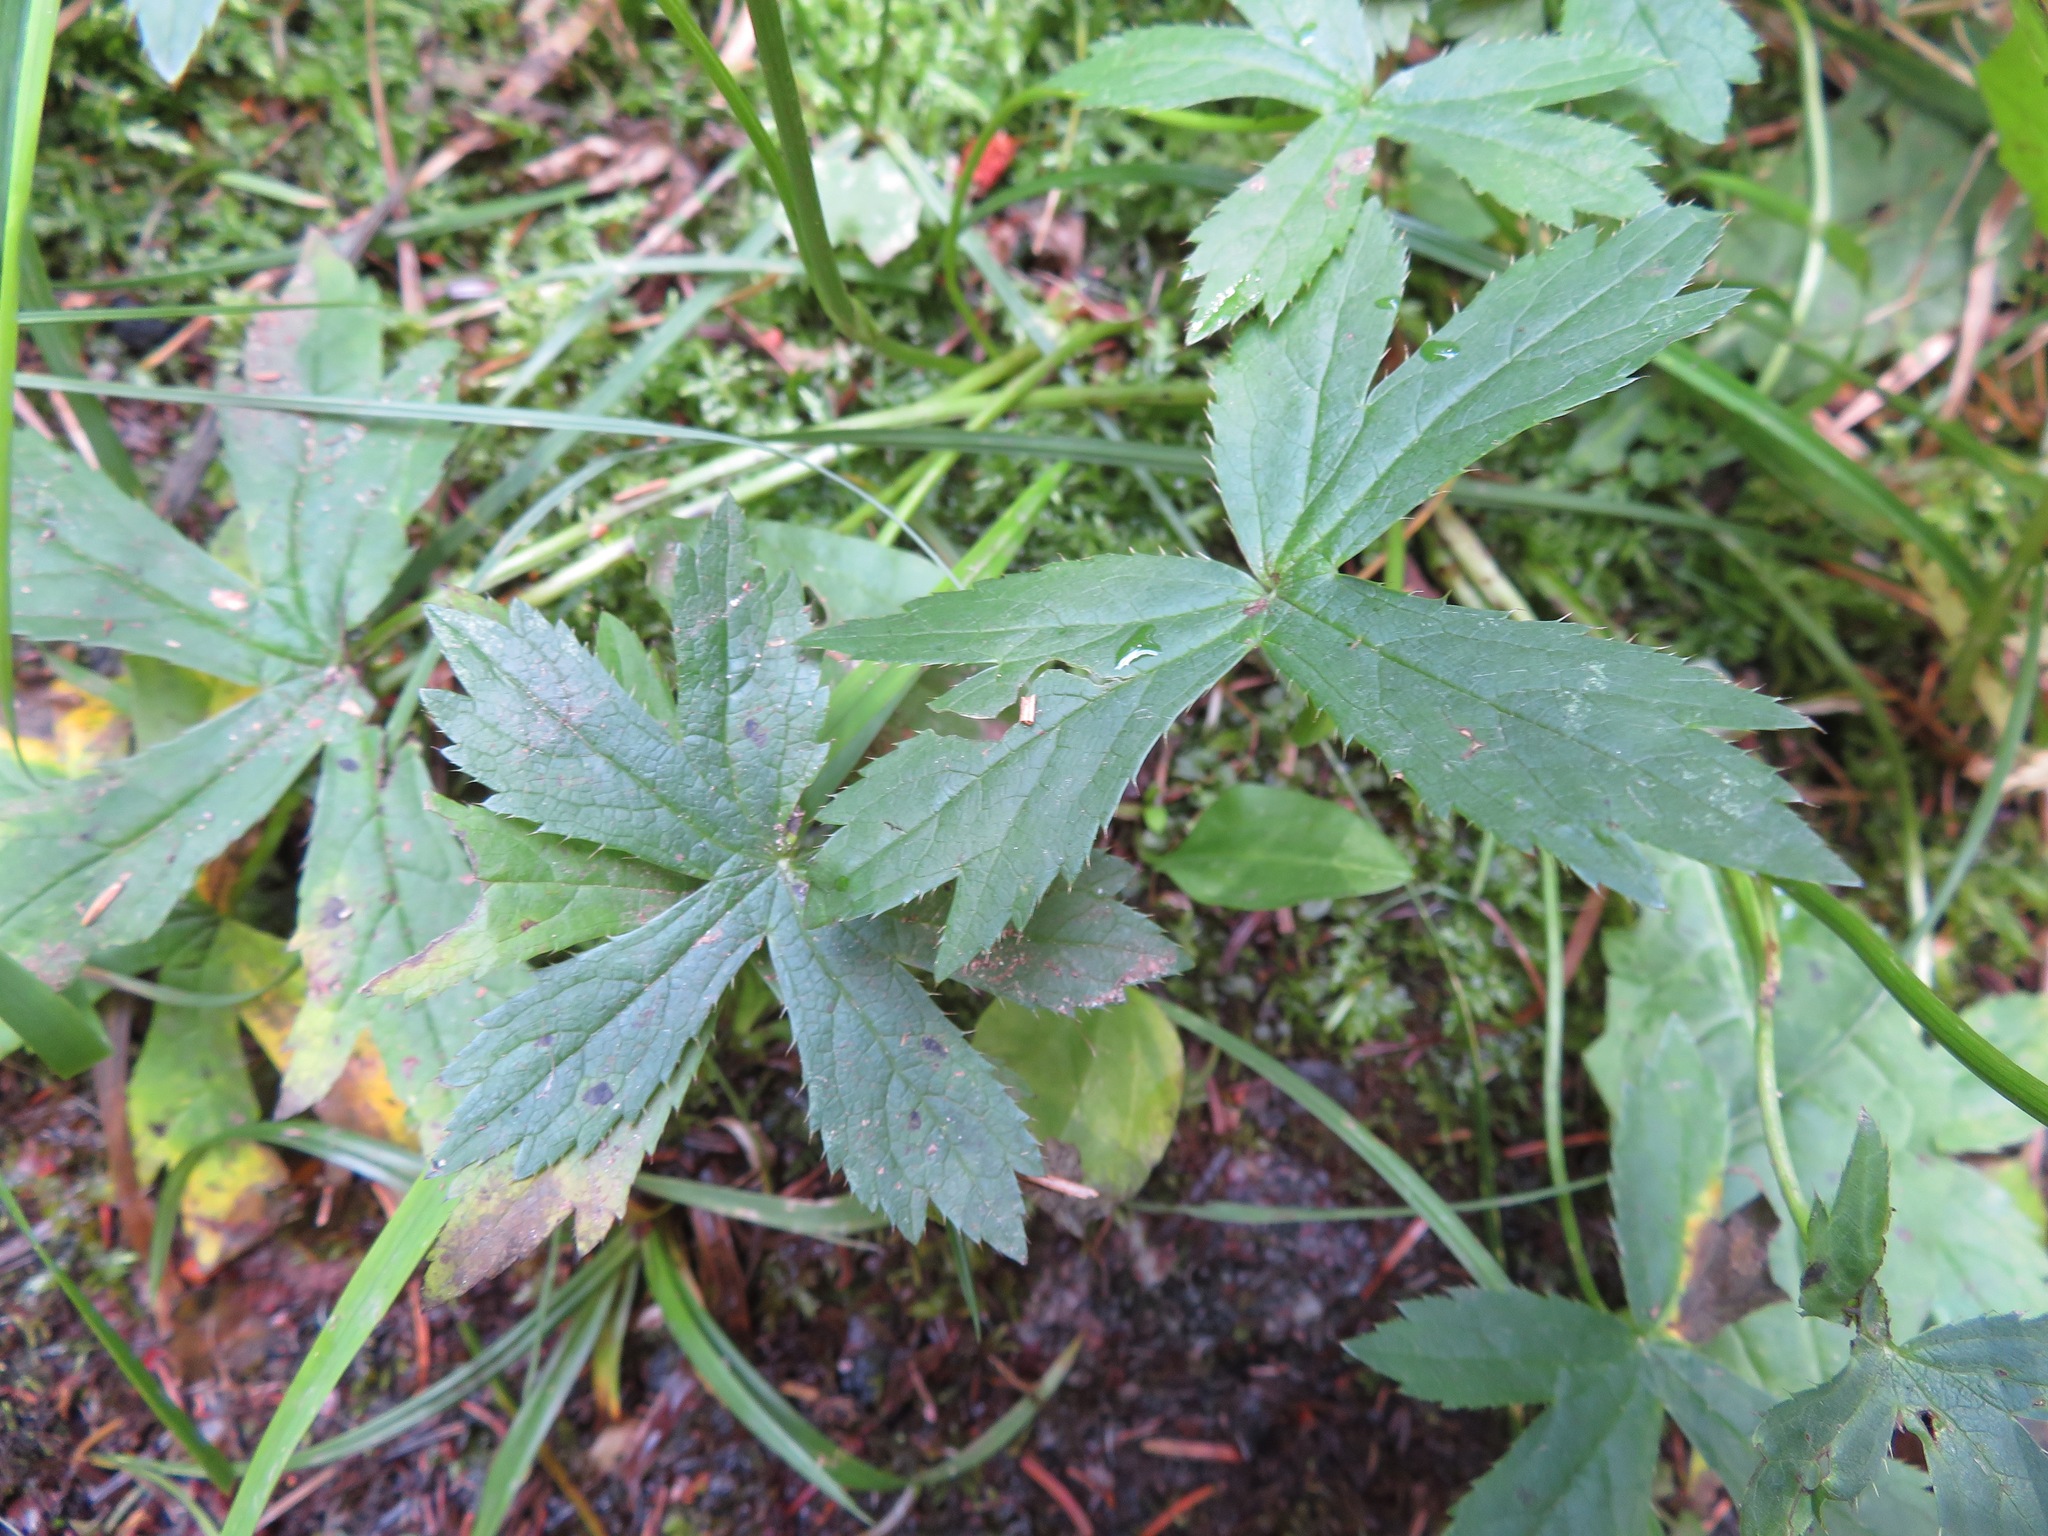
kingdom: Plantae
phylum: Tracheophyta
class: Magnoliopsida
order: Apiales
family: Apiaceae
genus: Astrantia
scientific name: Astrantia major
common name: Greater masterwort
